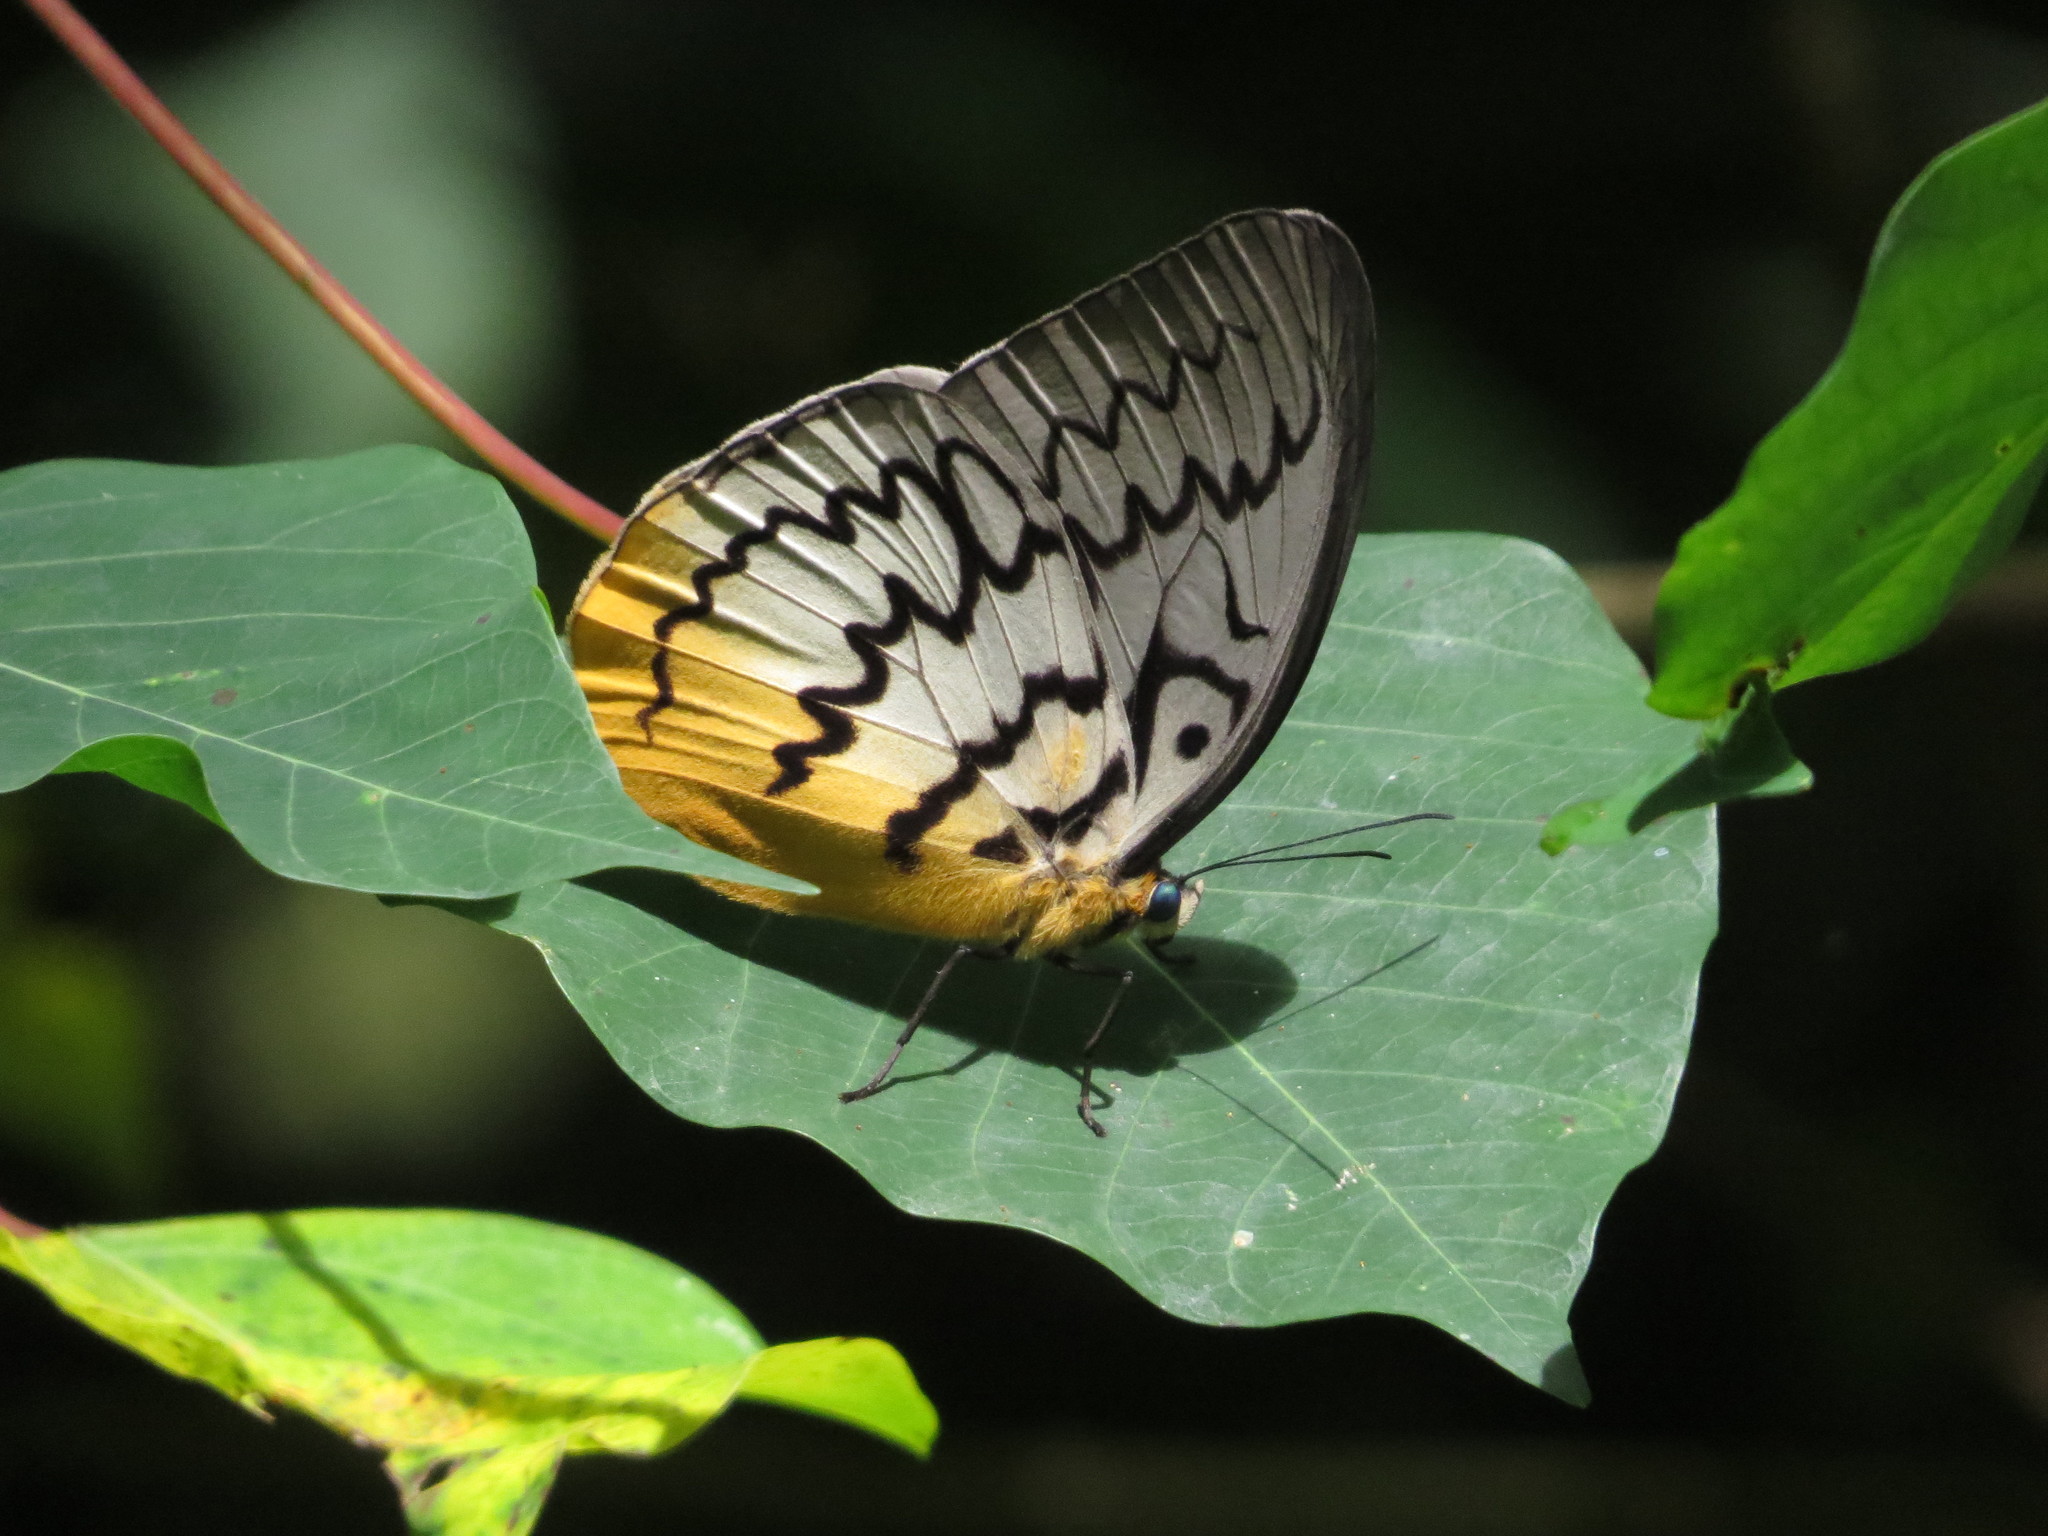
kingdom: Animalia
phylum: Arthropoda
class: Insecta
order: Lepidoptera
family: Nymphalidae
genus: Faunis
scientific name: Faunis Melanocyma faunula
